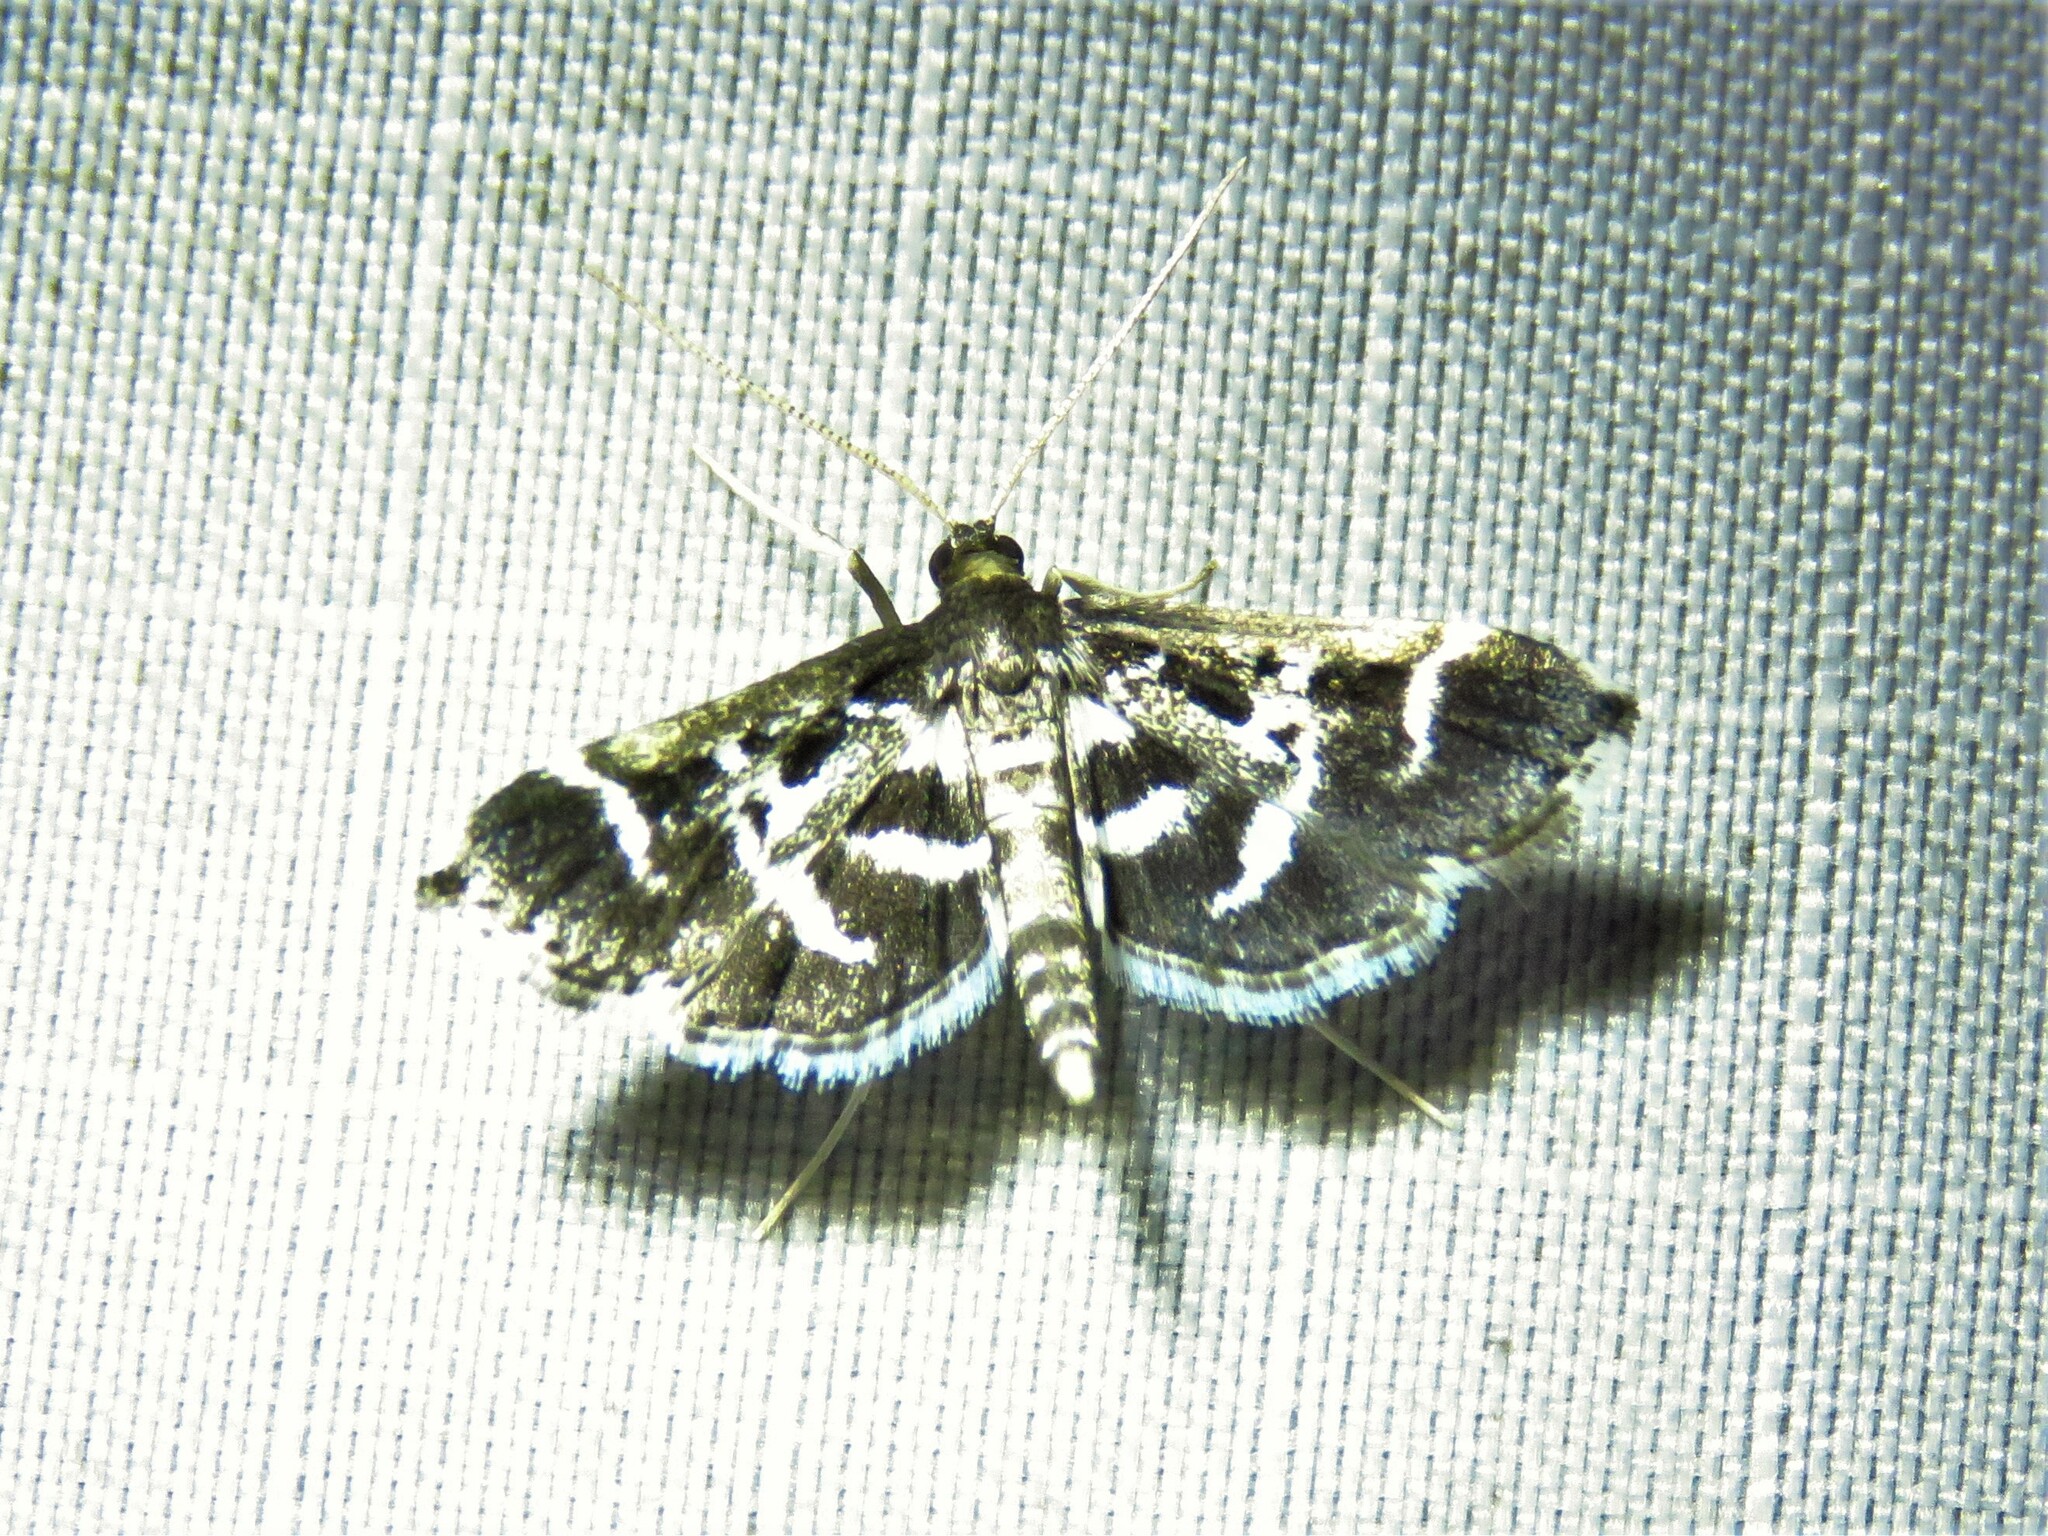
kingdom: Animalia
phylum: Arthropoda
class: Insecta
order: Lepidoptera
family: Crambidae
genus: Diasemiodes
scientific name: Diasemiodes janassialis
